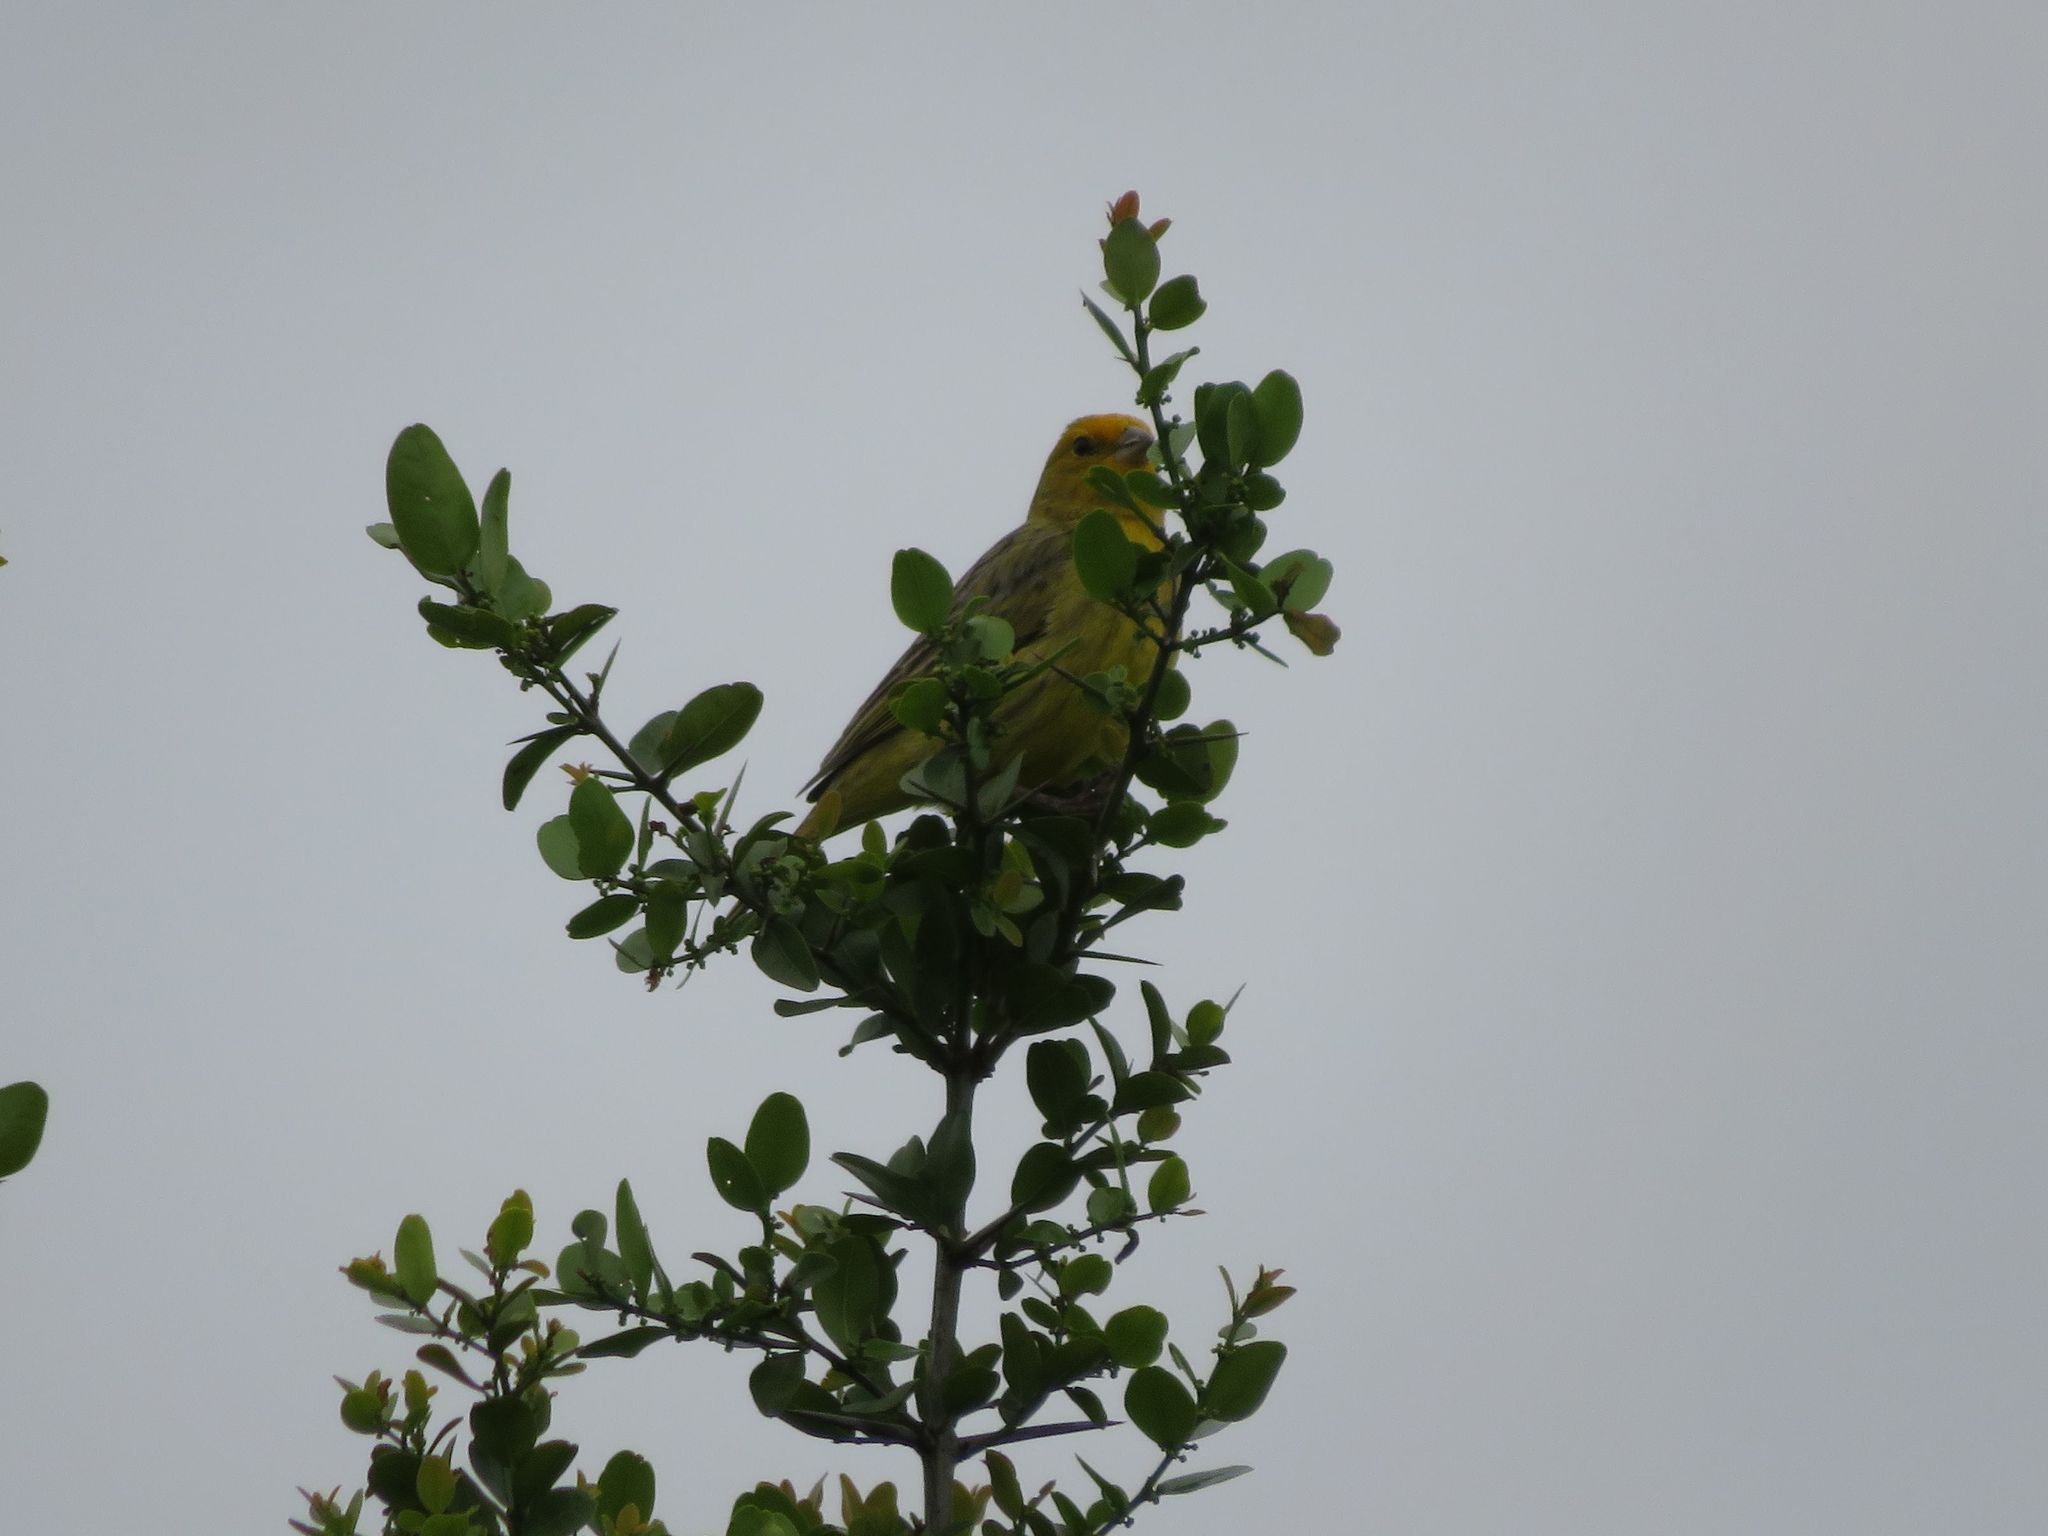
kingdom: Animalia
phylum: Chordata
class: Aves
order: Passeriformes
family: Thraupidae
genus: Sicalis
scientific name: Sicalis flaveola
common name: Saffron finch
